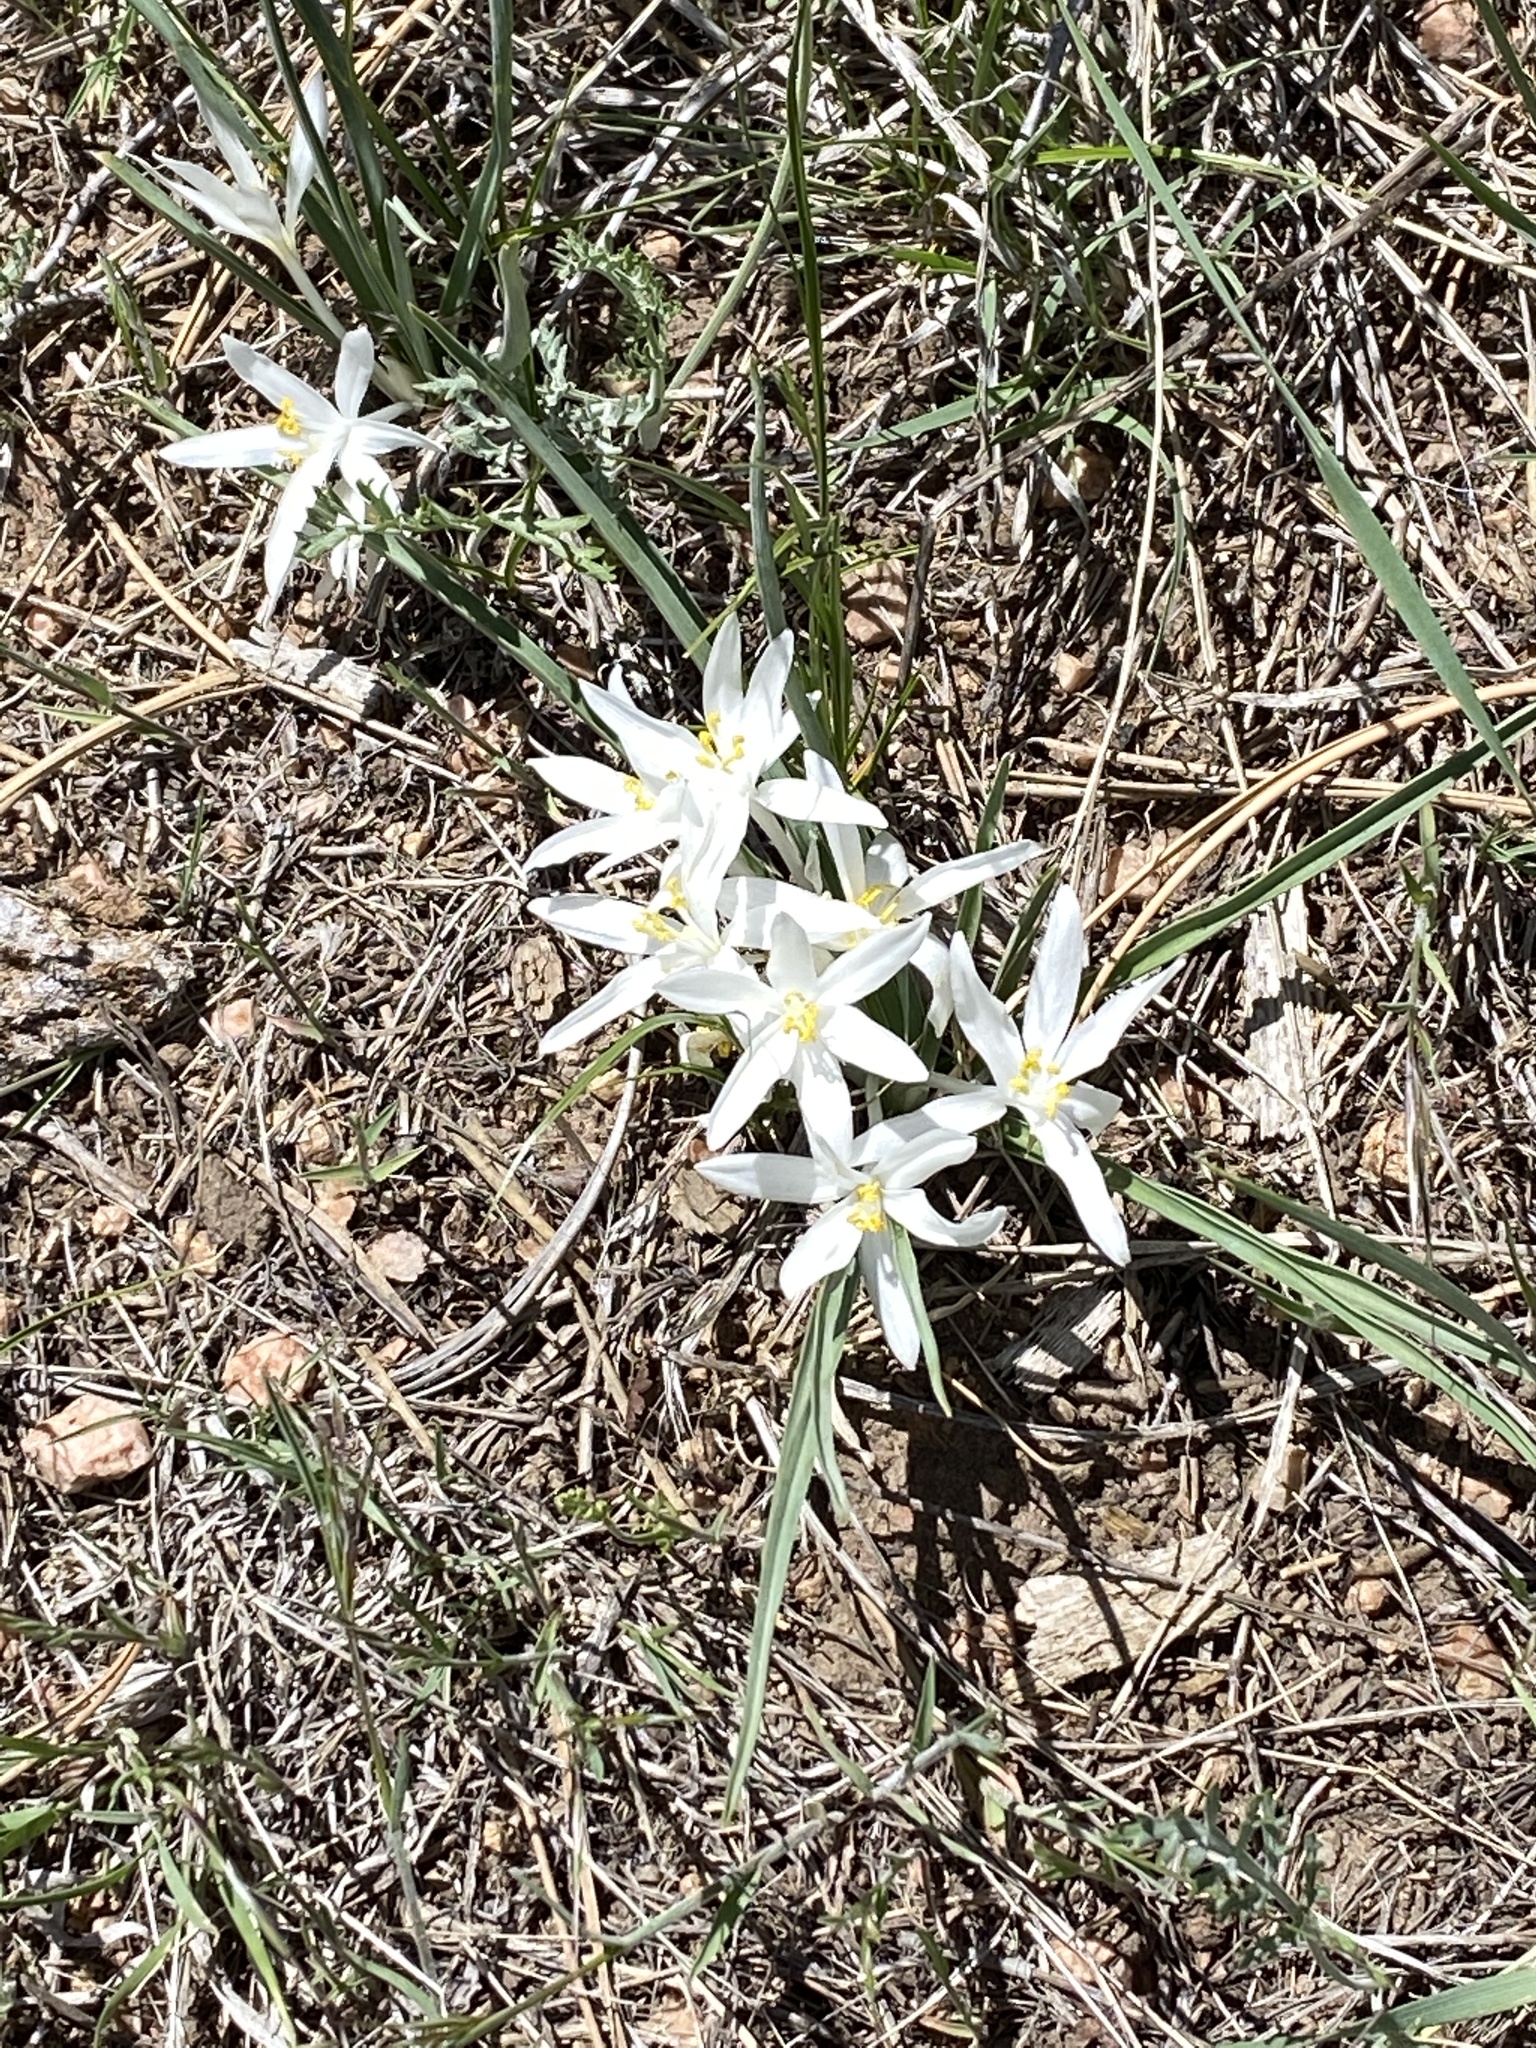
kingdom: Plantae
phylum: Tracheophyta
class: Liliopsida
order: Asparagales
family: Asparagaceae
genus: Leucocrinum
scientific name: Leucocrinum montanum
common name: Mountain-lily
